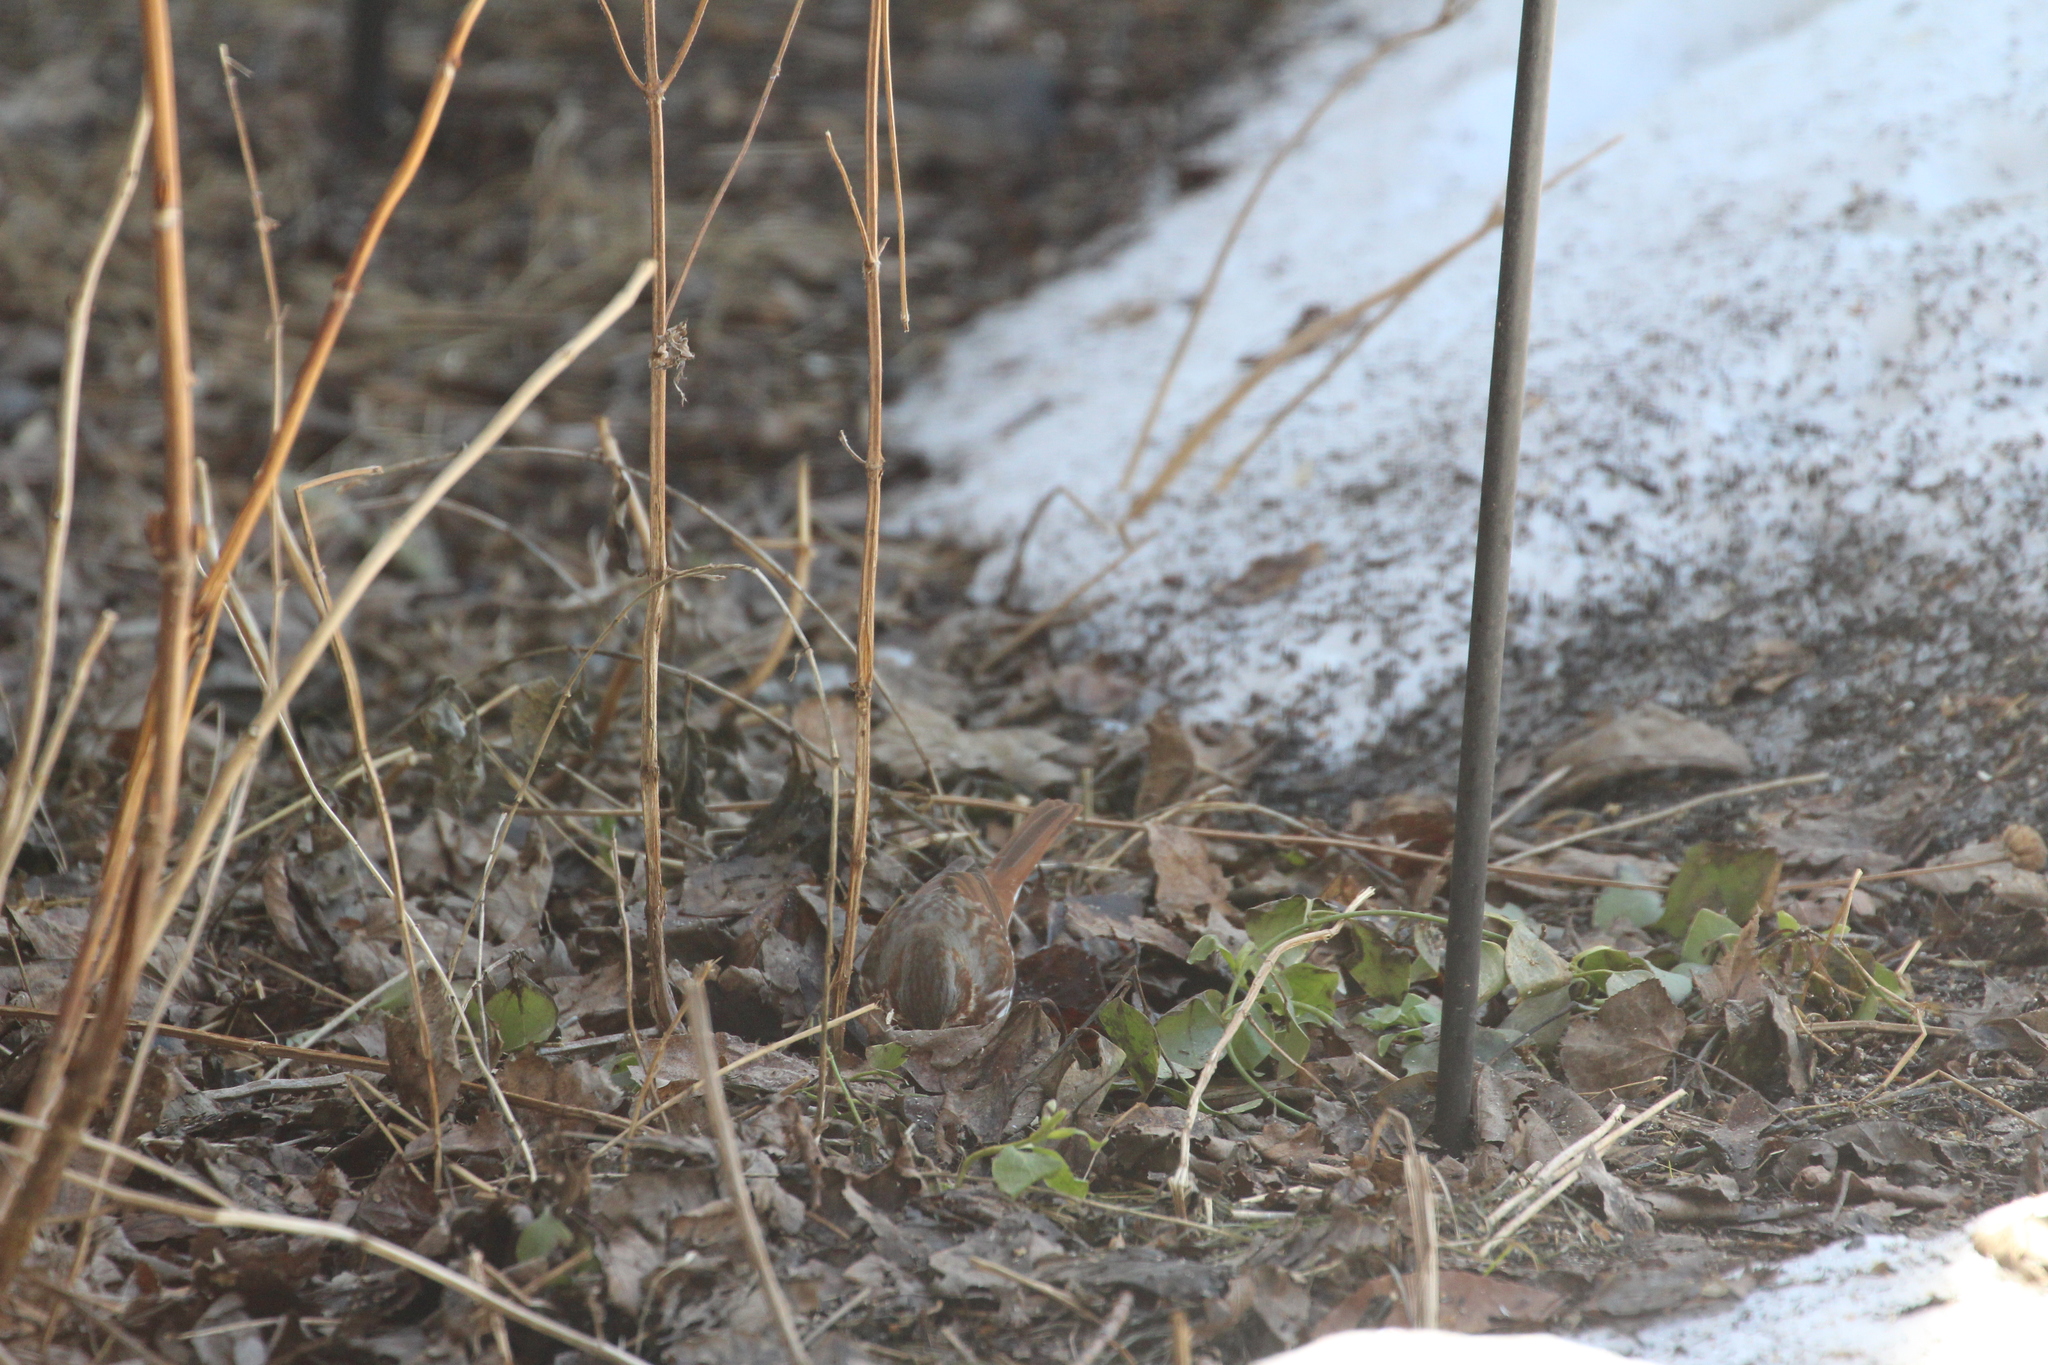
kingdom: Animalia
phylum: Chordata
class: Aves
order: Passeriformes
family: Passerellidae
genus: Passerella
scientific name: Passerella iliaca
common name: Fox sparrow
